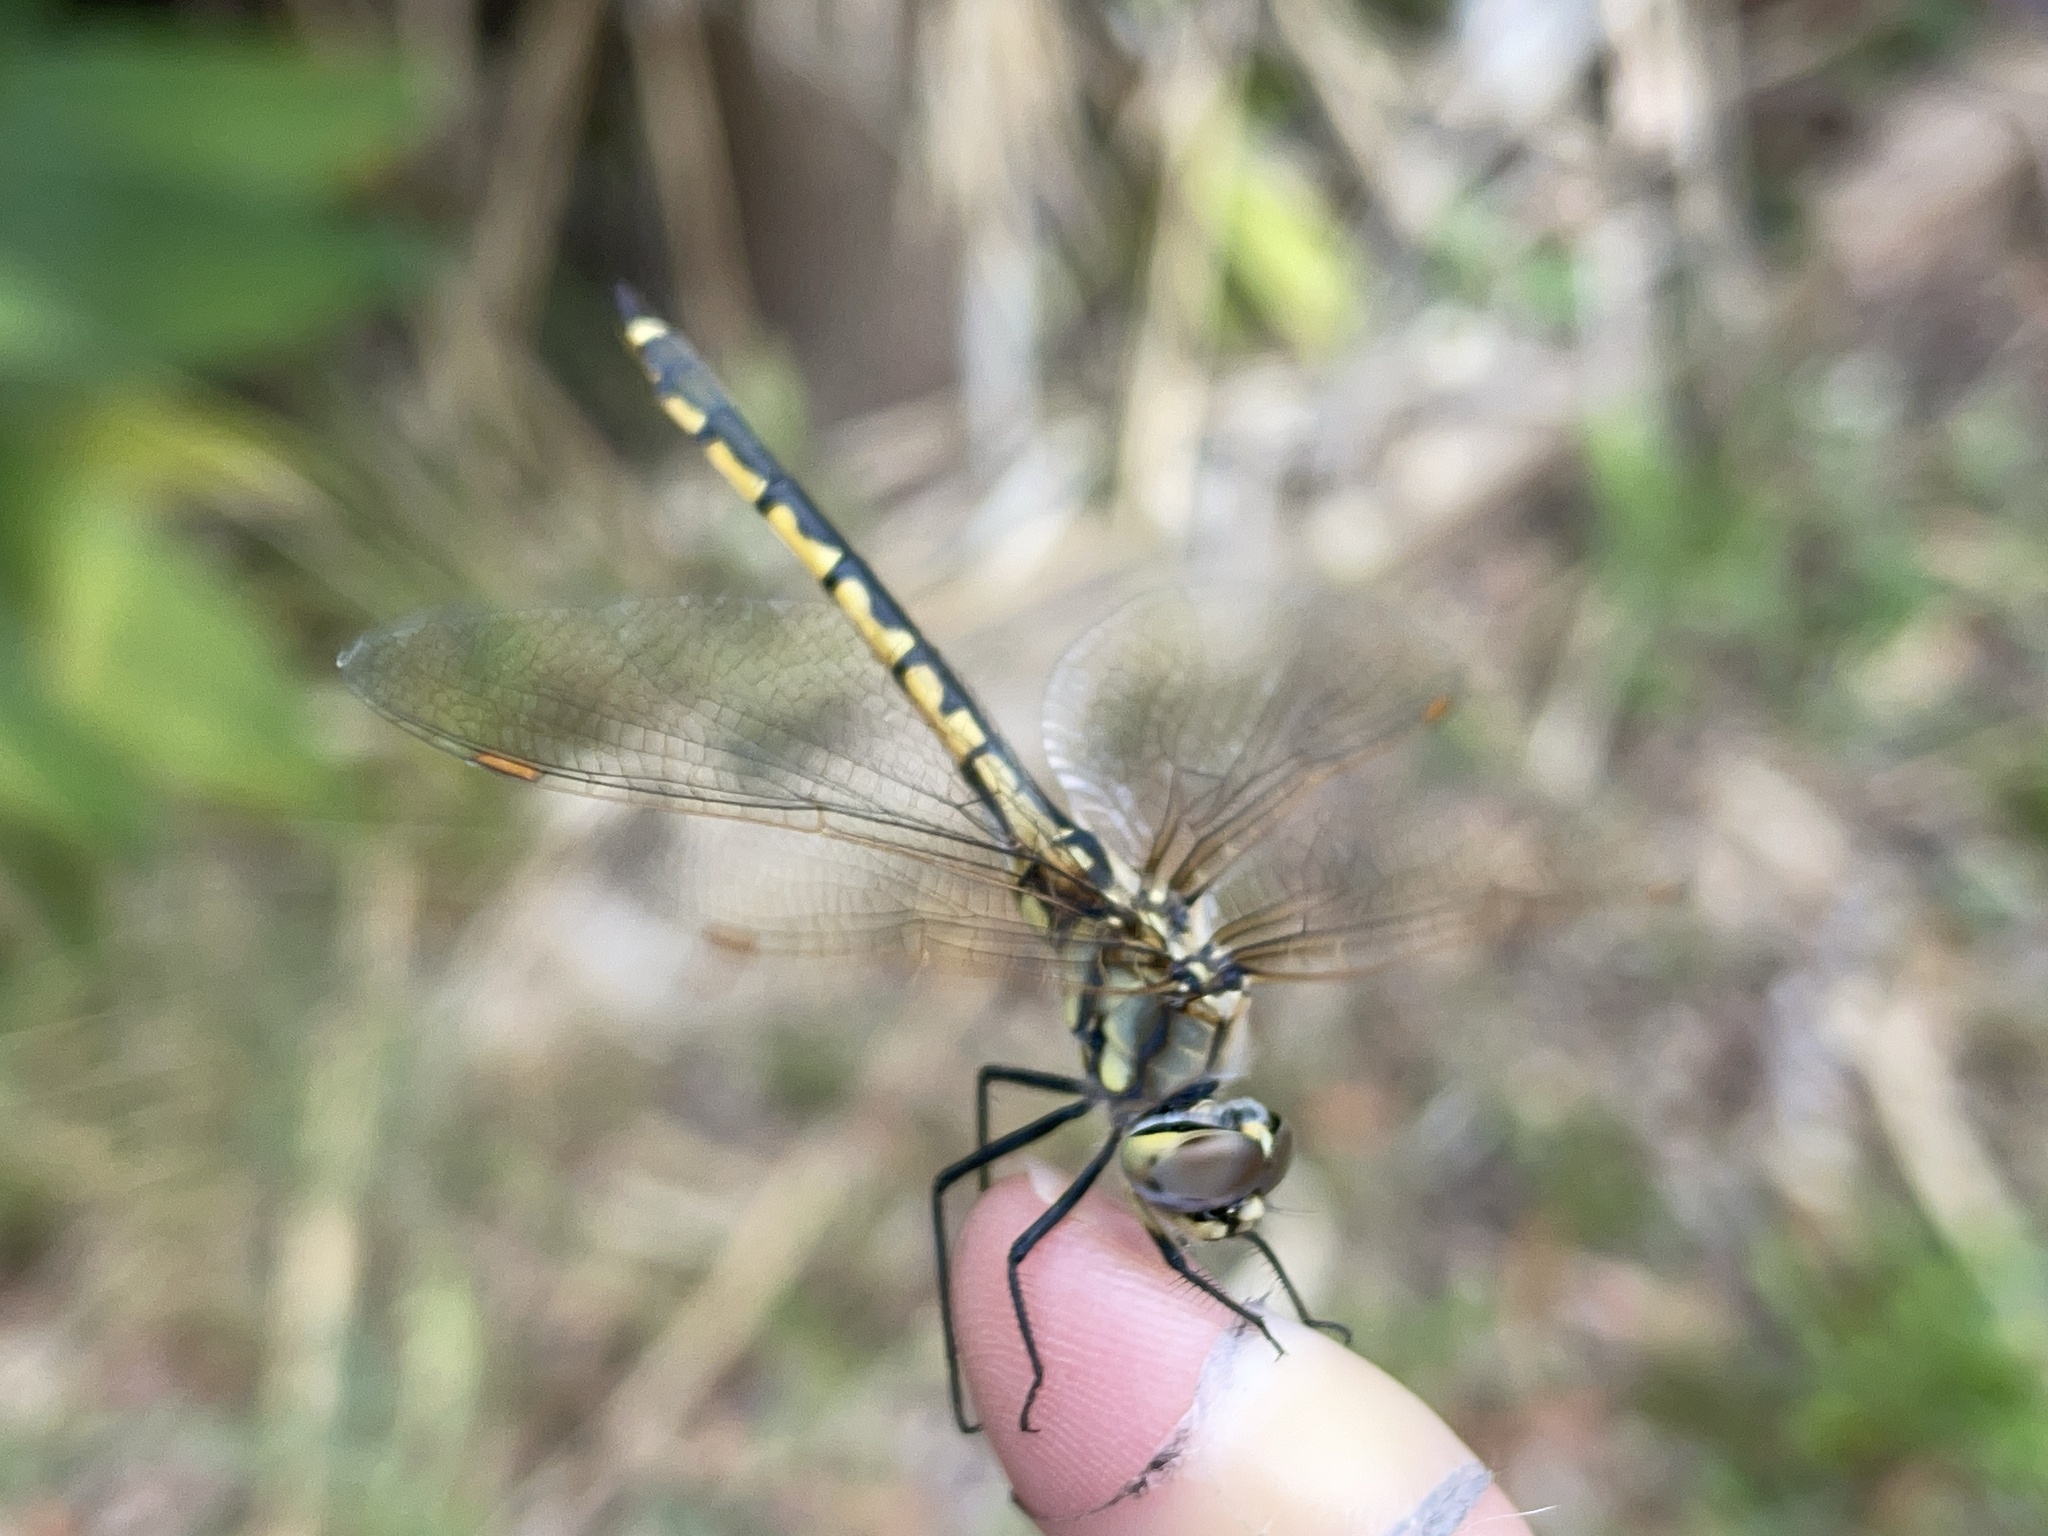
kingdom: Animalia
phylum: Arthropoda
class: Insecta
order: Odonata
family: Corduliidae
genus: Hemicordulia
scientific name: Hemicordulia tau
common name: Tau emerald
